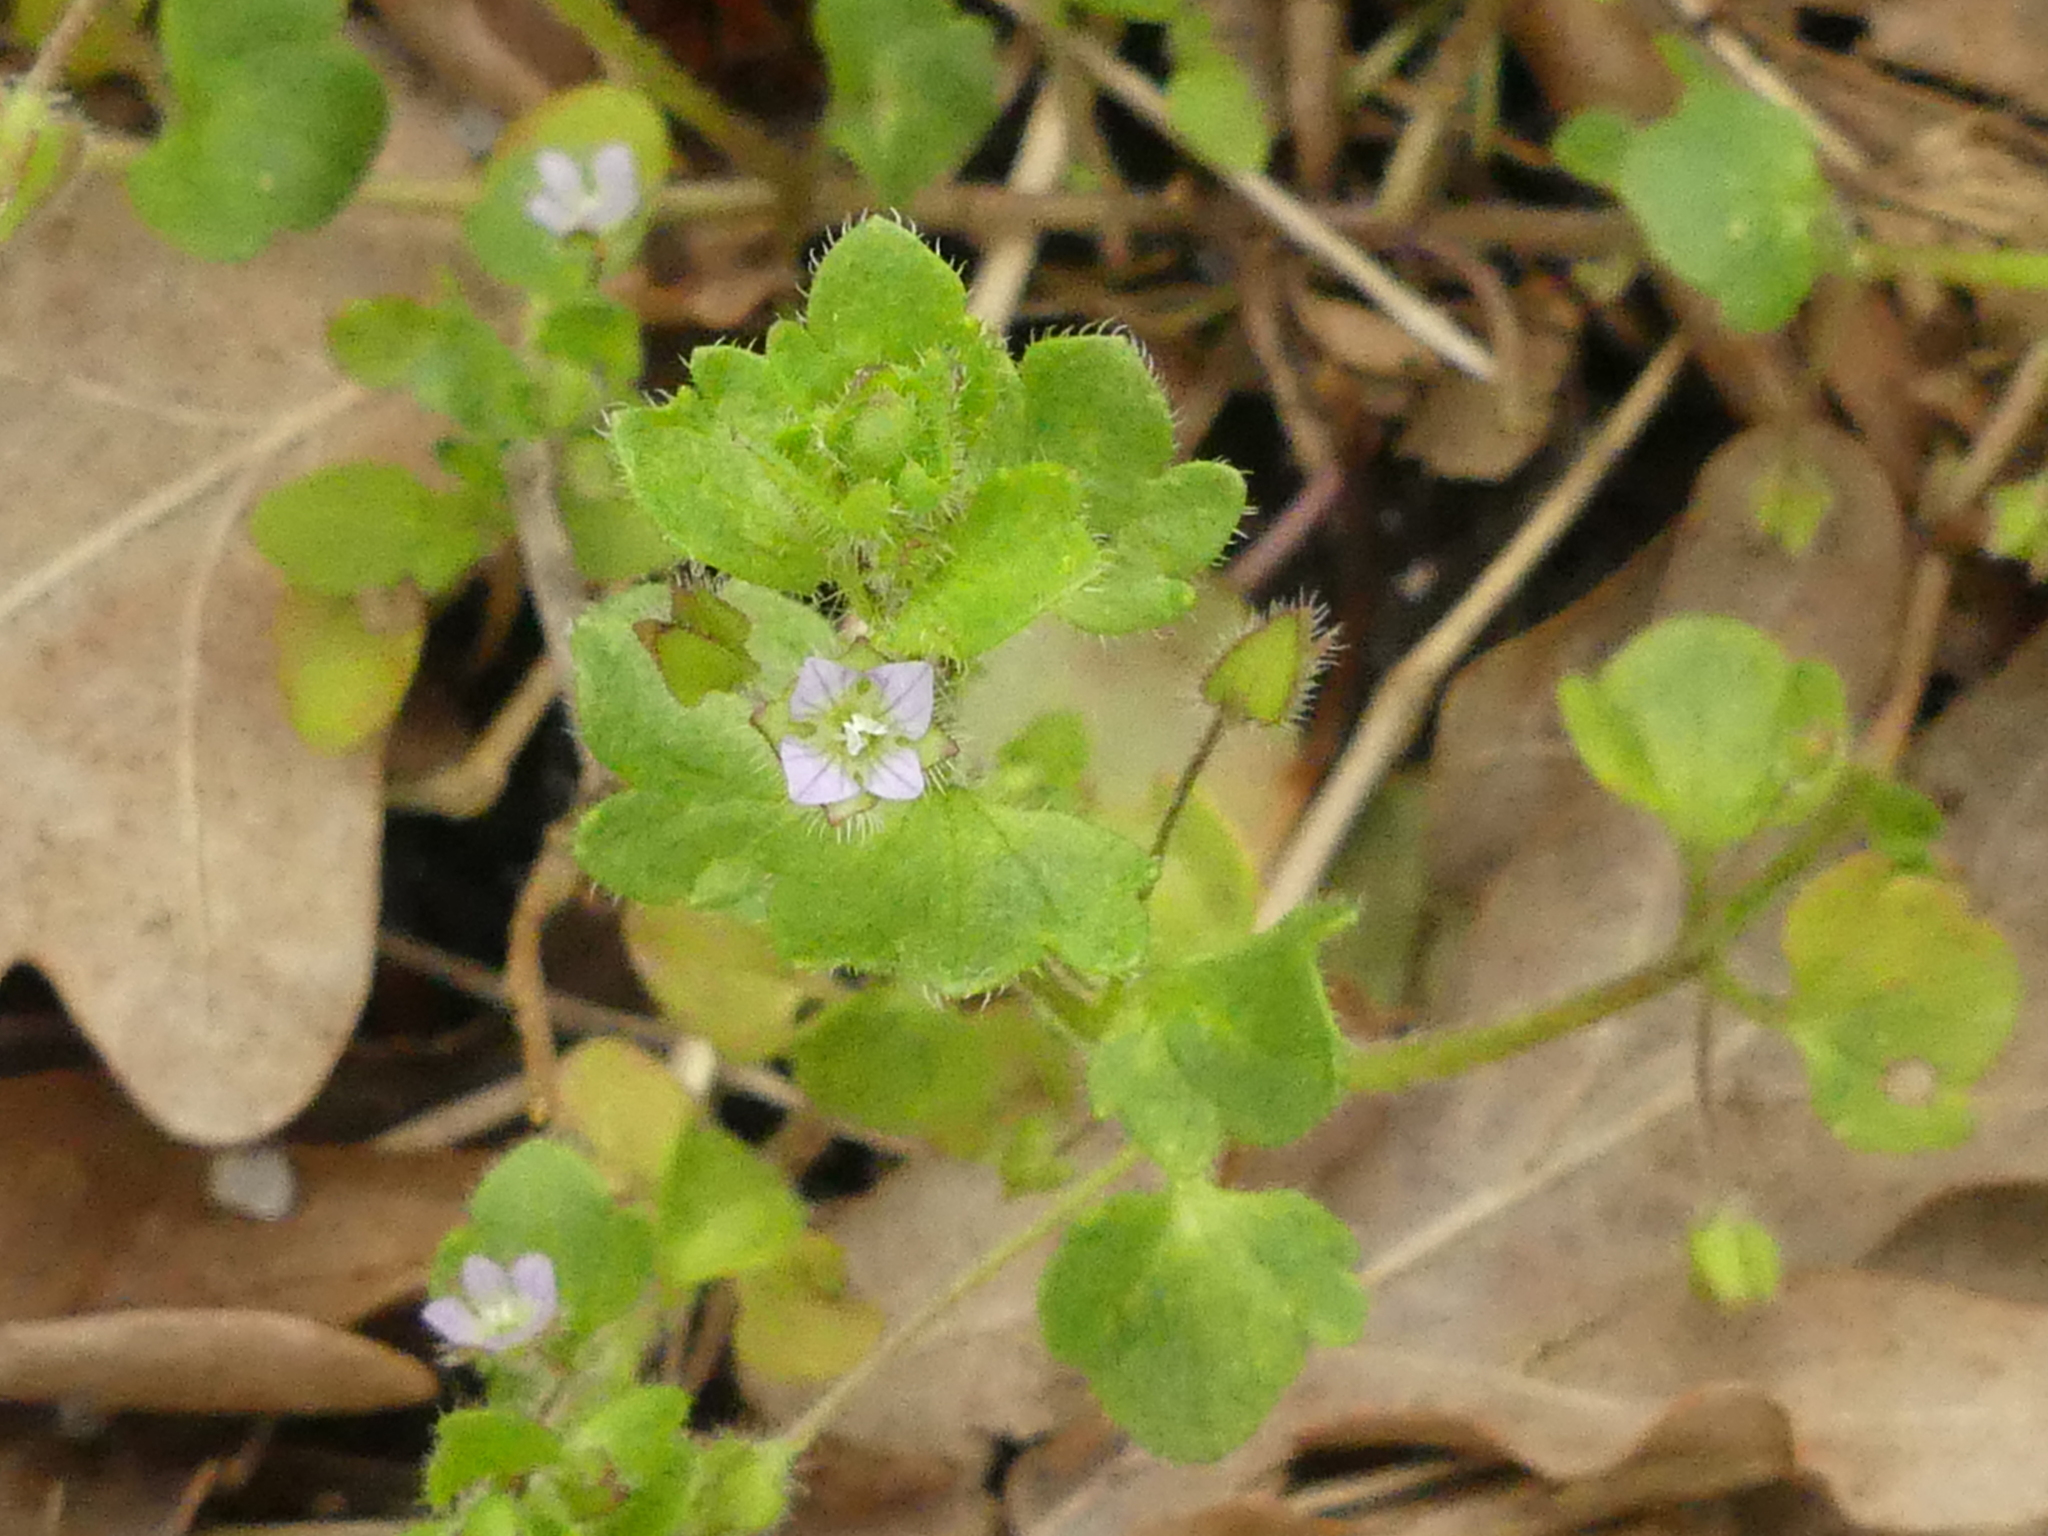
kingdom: Plantae
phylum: Tracheophyta
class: Magnoliopsida
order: Lamiales
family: Plantaginaceae
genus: Veronica
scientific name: Veronica sublobata
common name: False ivy-leaved speedwell
